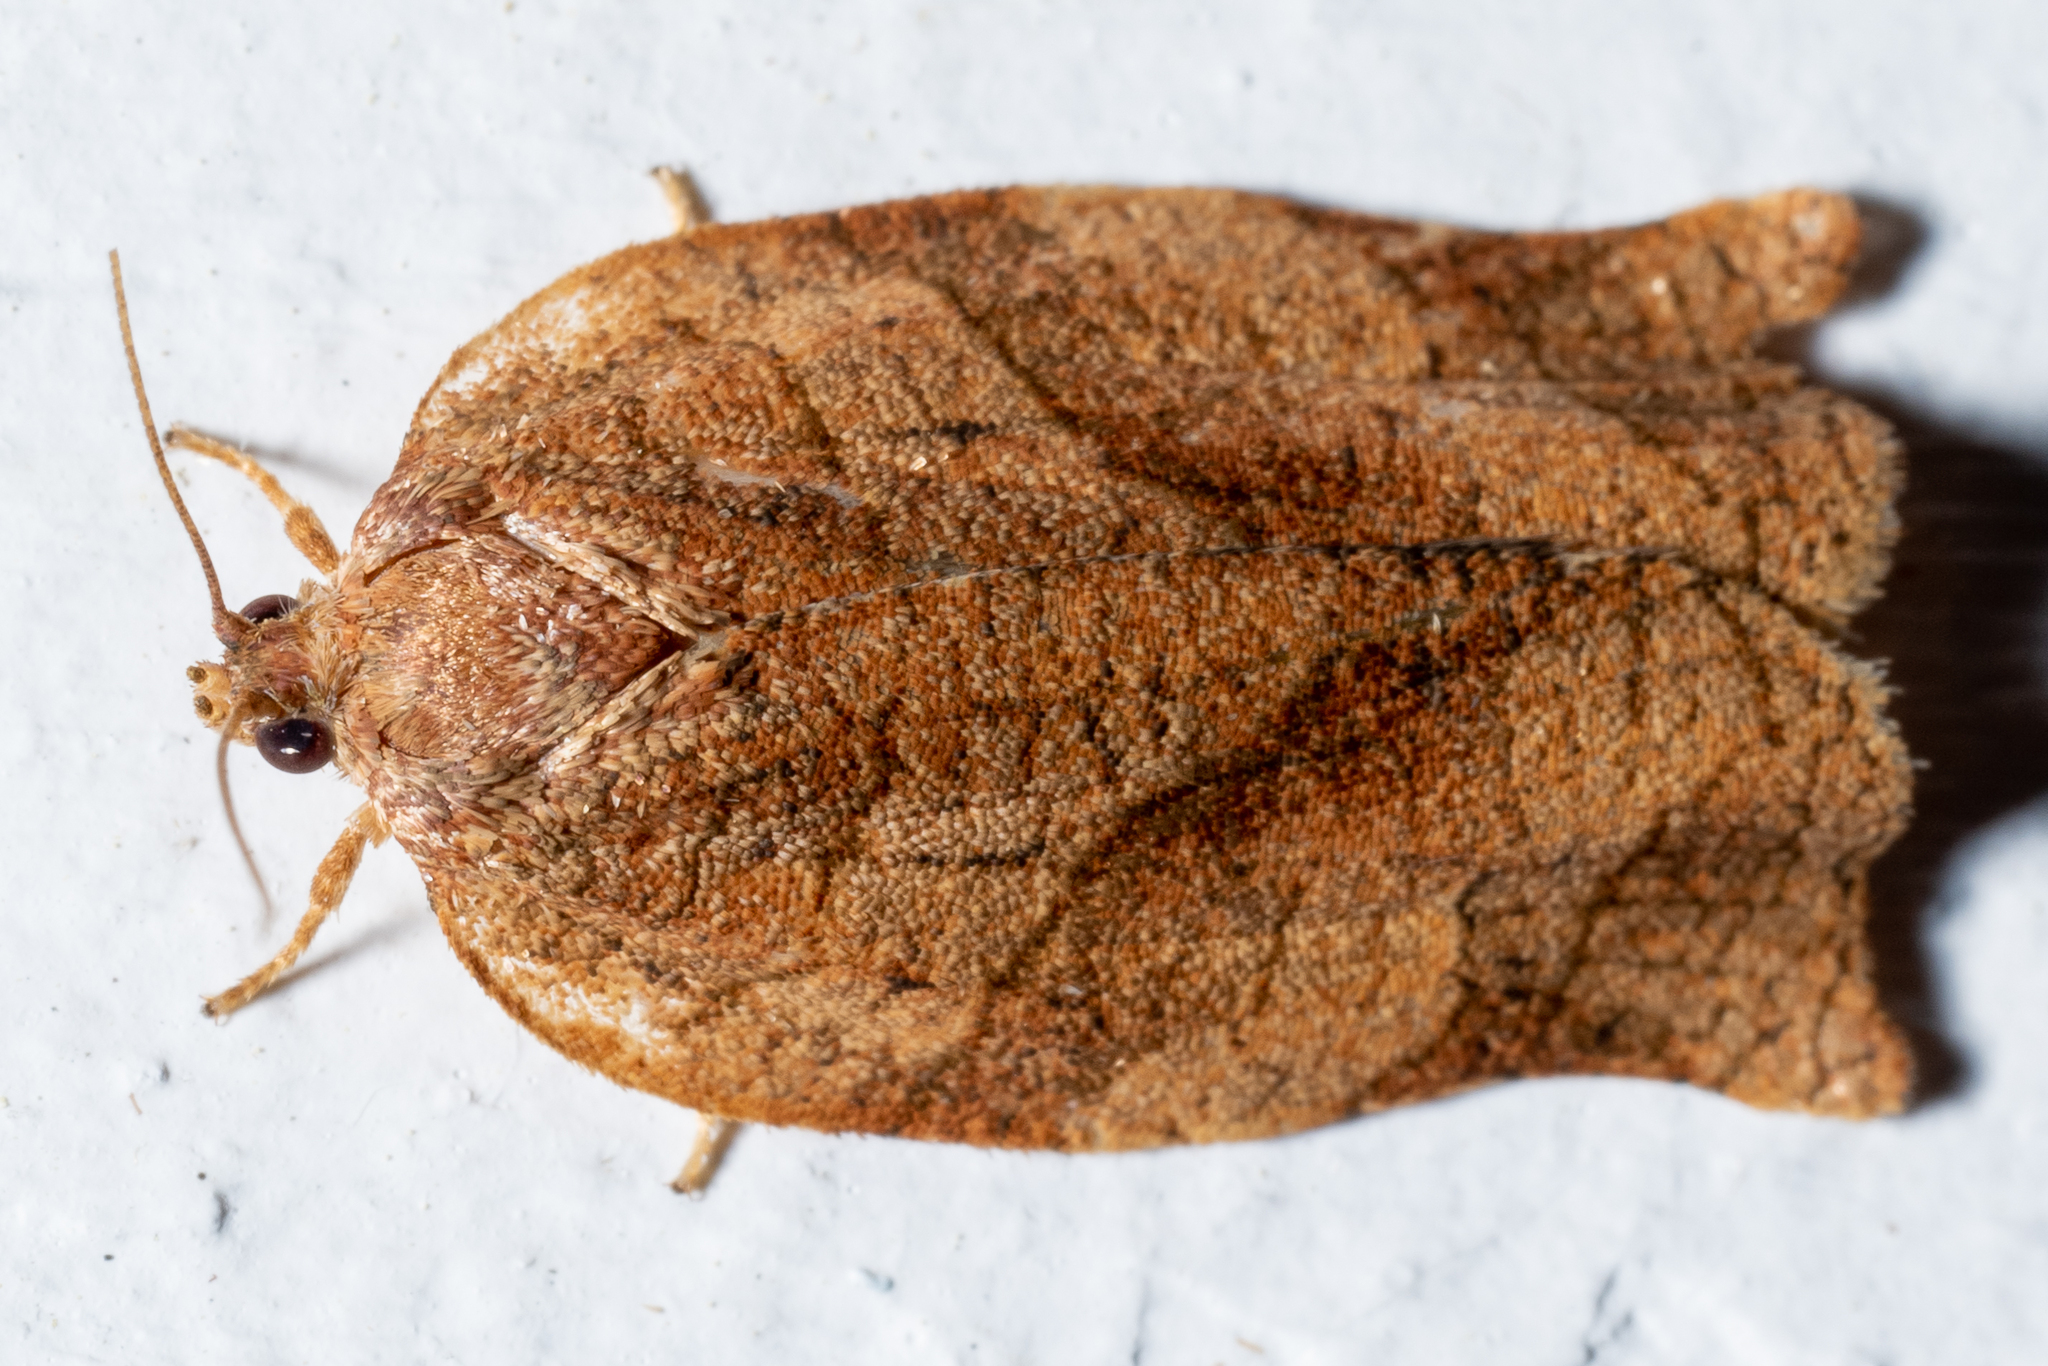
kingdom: Animalia
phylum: Arthropoda
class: Insecta
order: Lepidoptera
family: Tortricidae
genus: Choristoneura
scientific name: Choristoneura rosaceana
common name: Oblique-banded leafroller moth
